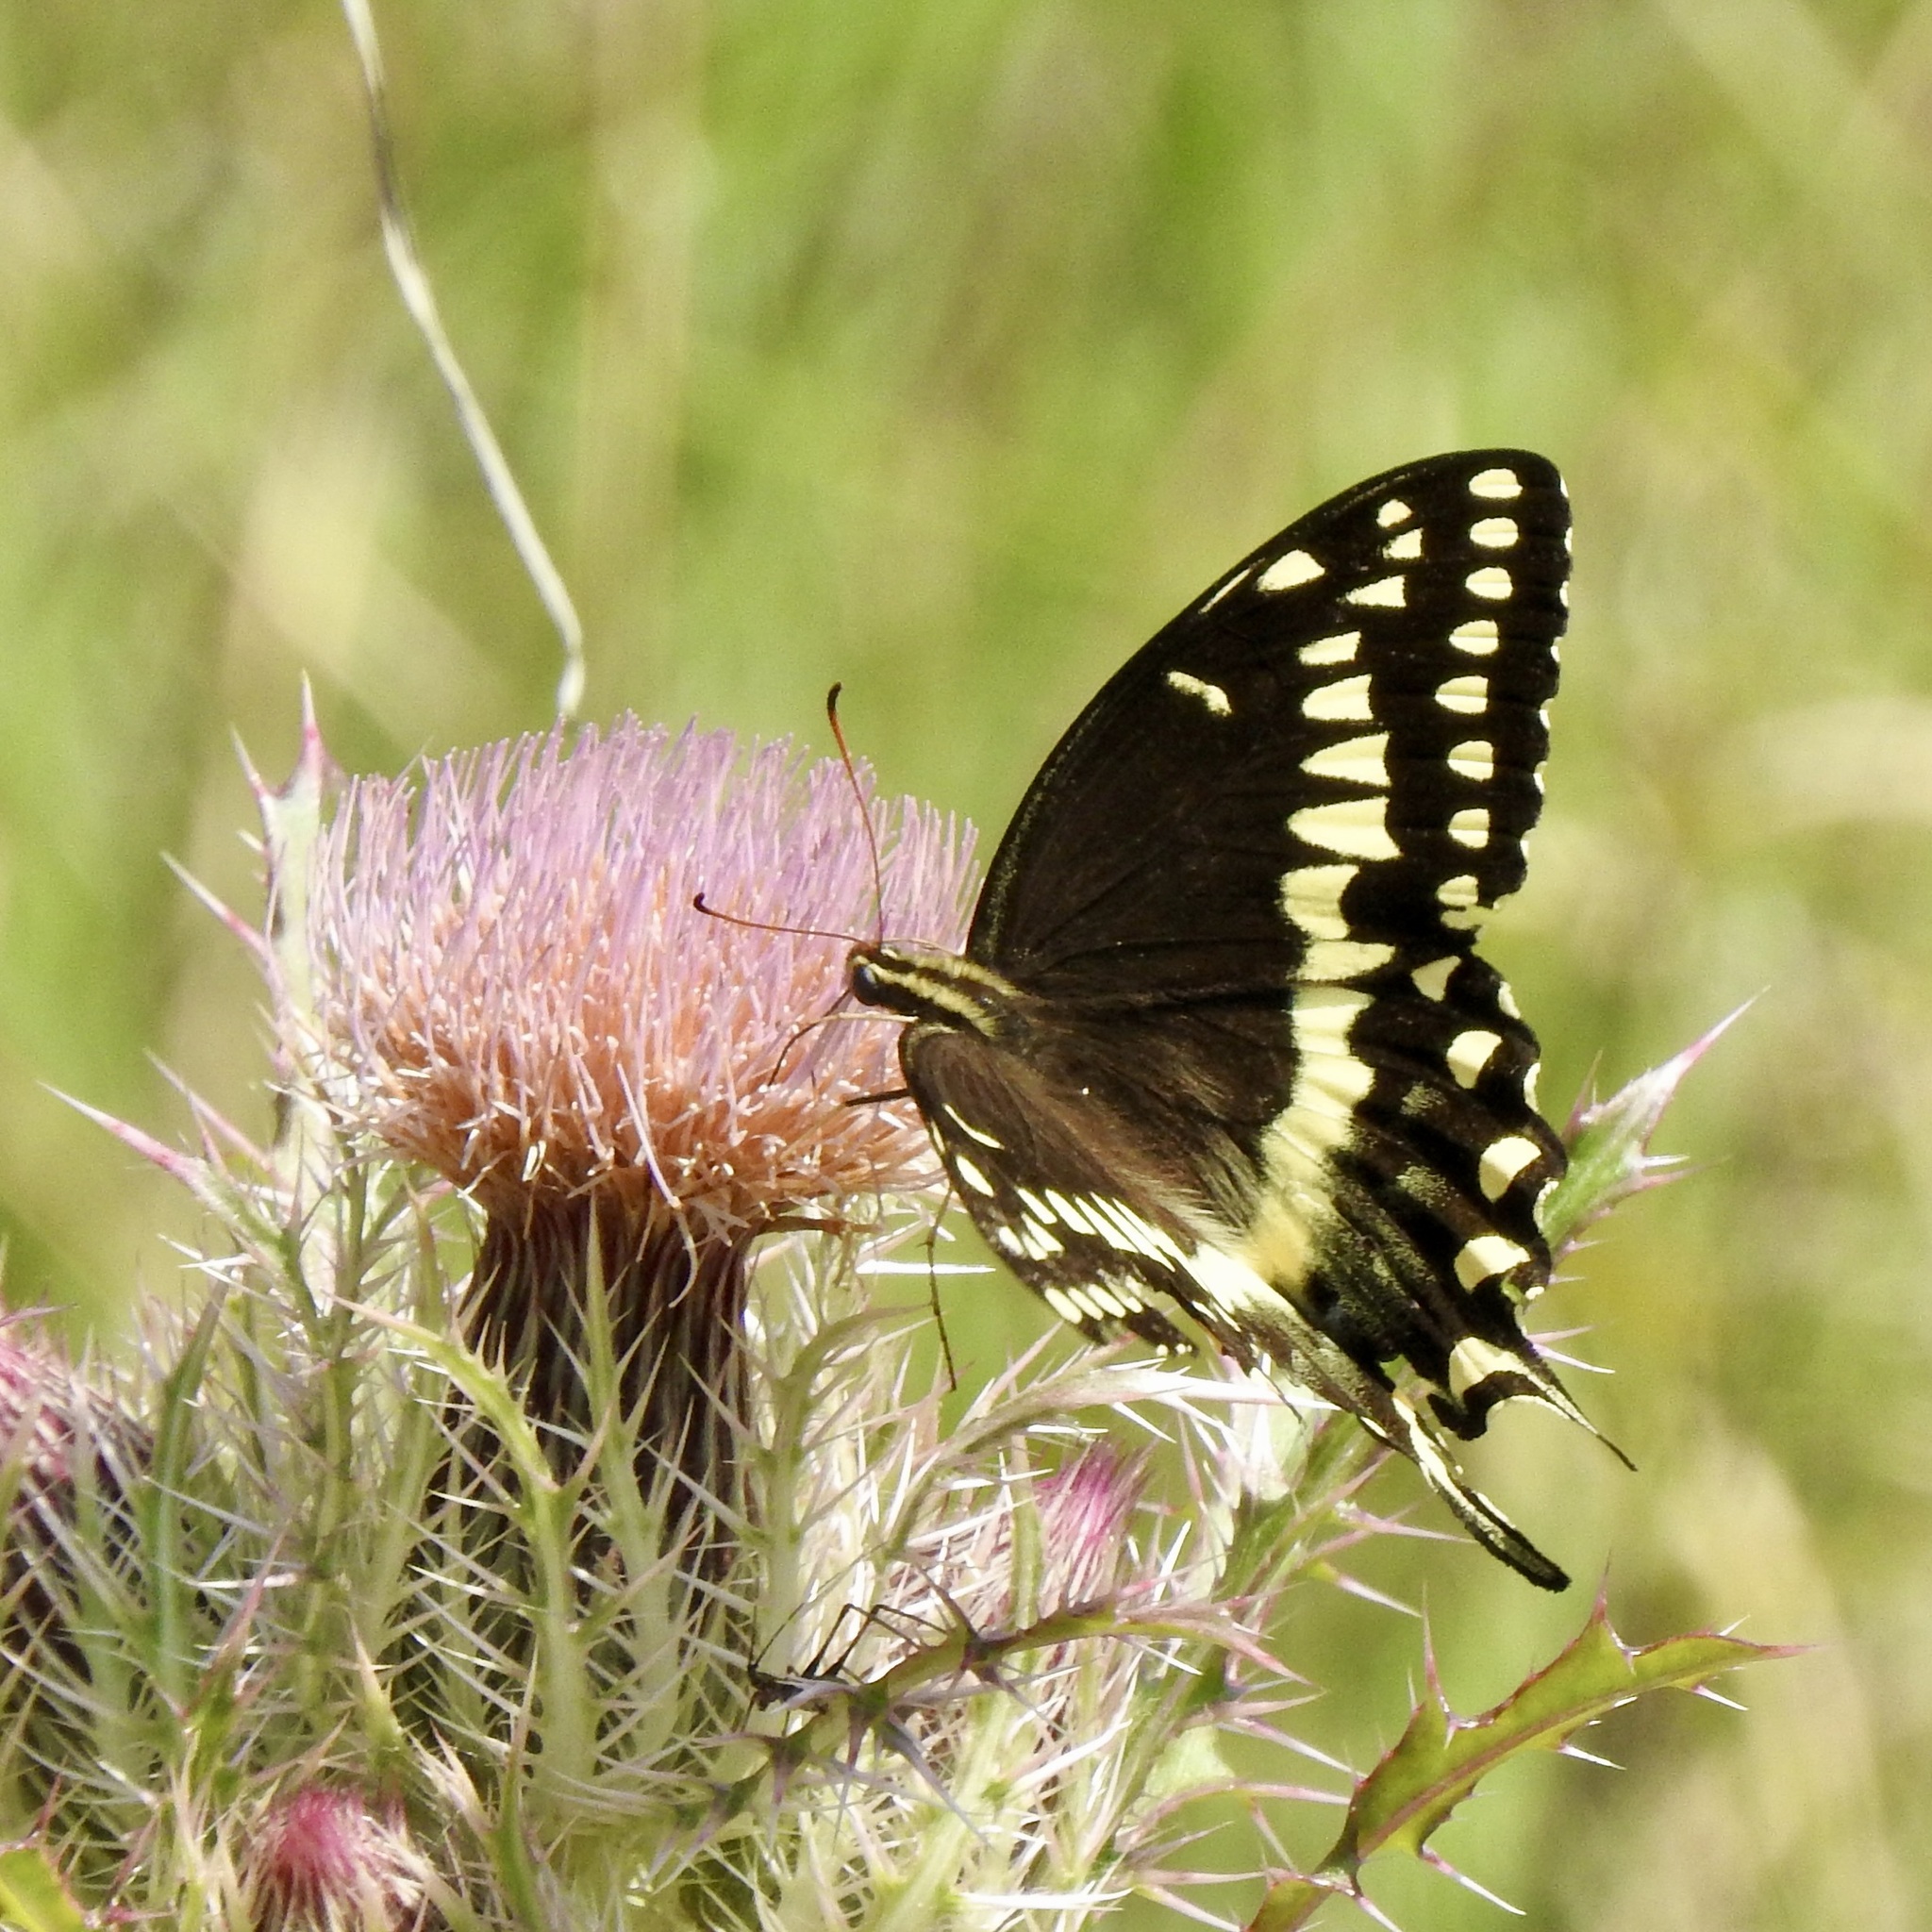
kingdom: Animalia
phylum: Arthropoda
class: Insecta
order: Lepidoptera
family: Papilionidae
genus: Papilio
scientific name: Papilio palamedes
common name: Palamedes swallowtail
